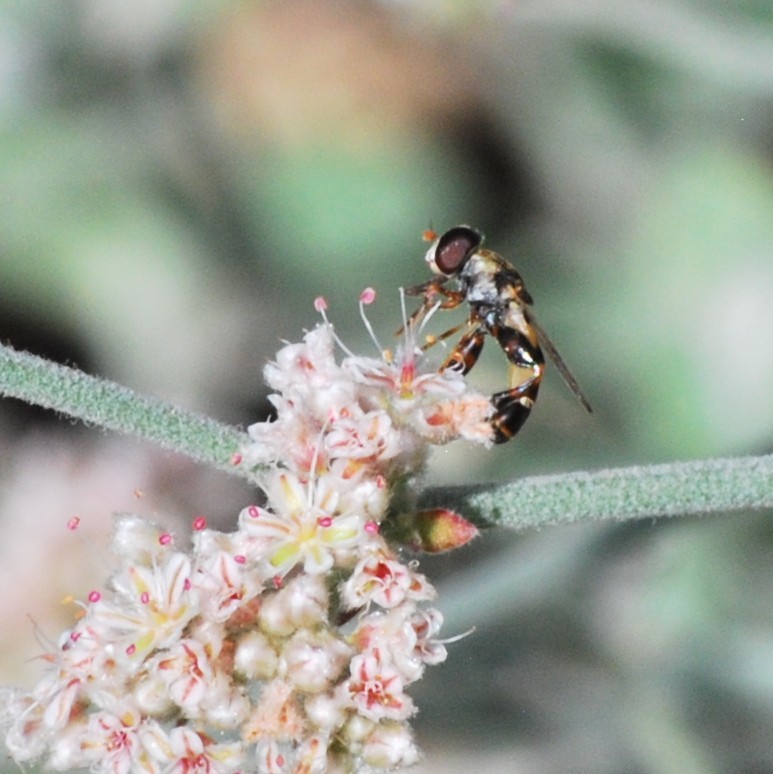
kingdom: Animalia
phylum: Arthropoda
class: Insecta
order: Diptera
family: Syrphidae
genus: Syritta
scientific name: Syritta pipiens
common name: Hover fly
